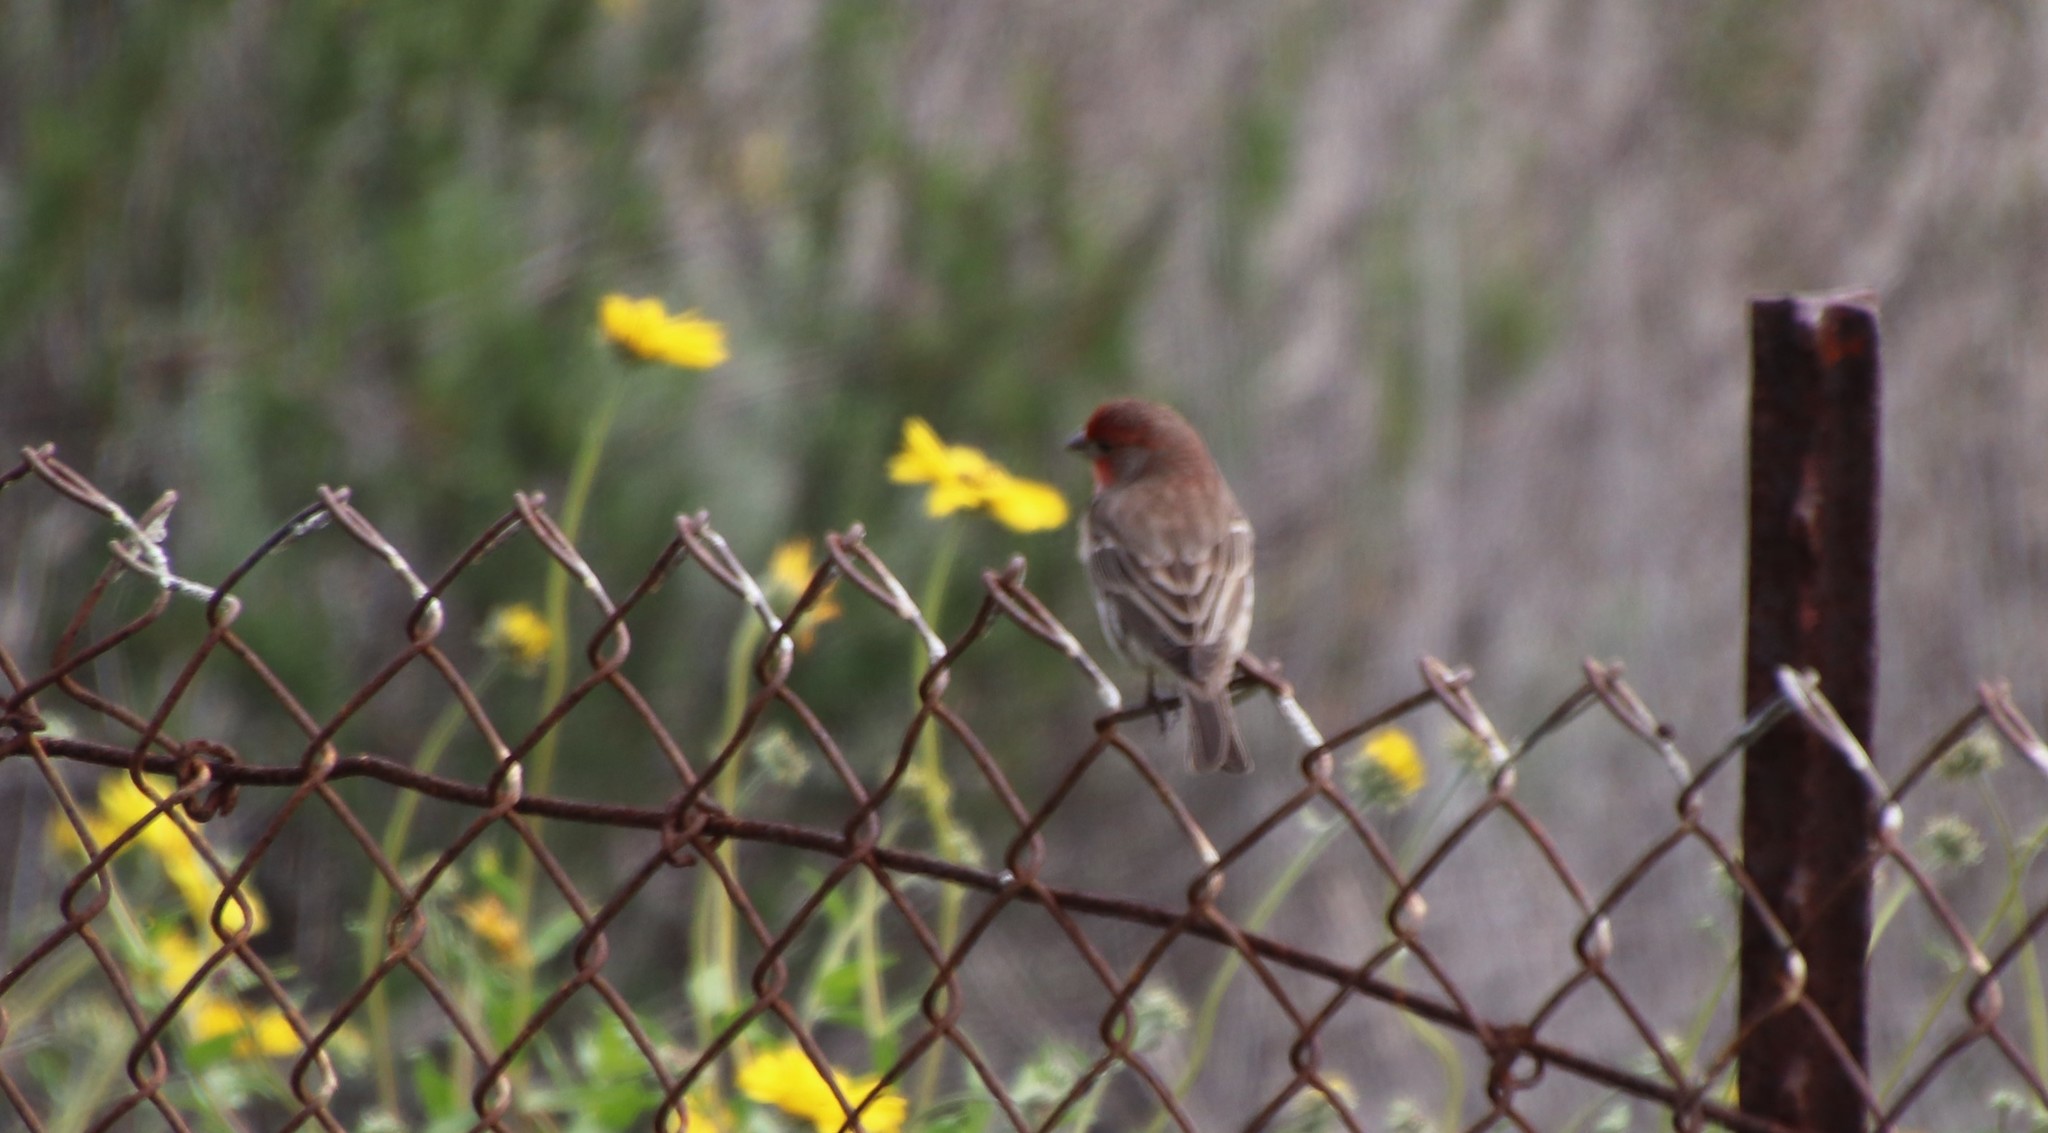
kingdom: Animalia
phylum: Chordata
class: Aves
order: Passeriformes
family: Fringillidae
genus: Haemorhous
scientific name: Haemorhous mexicanus
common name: House finch
